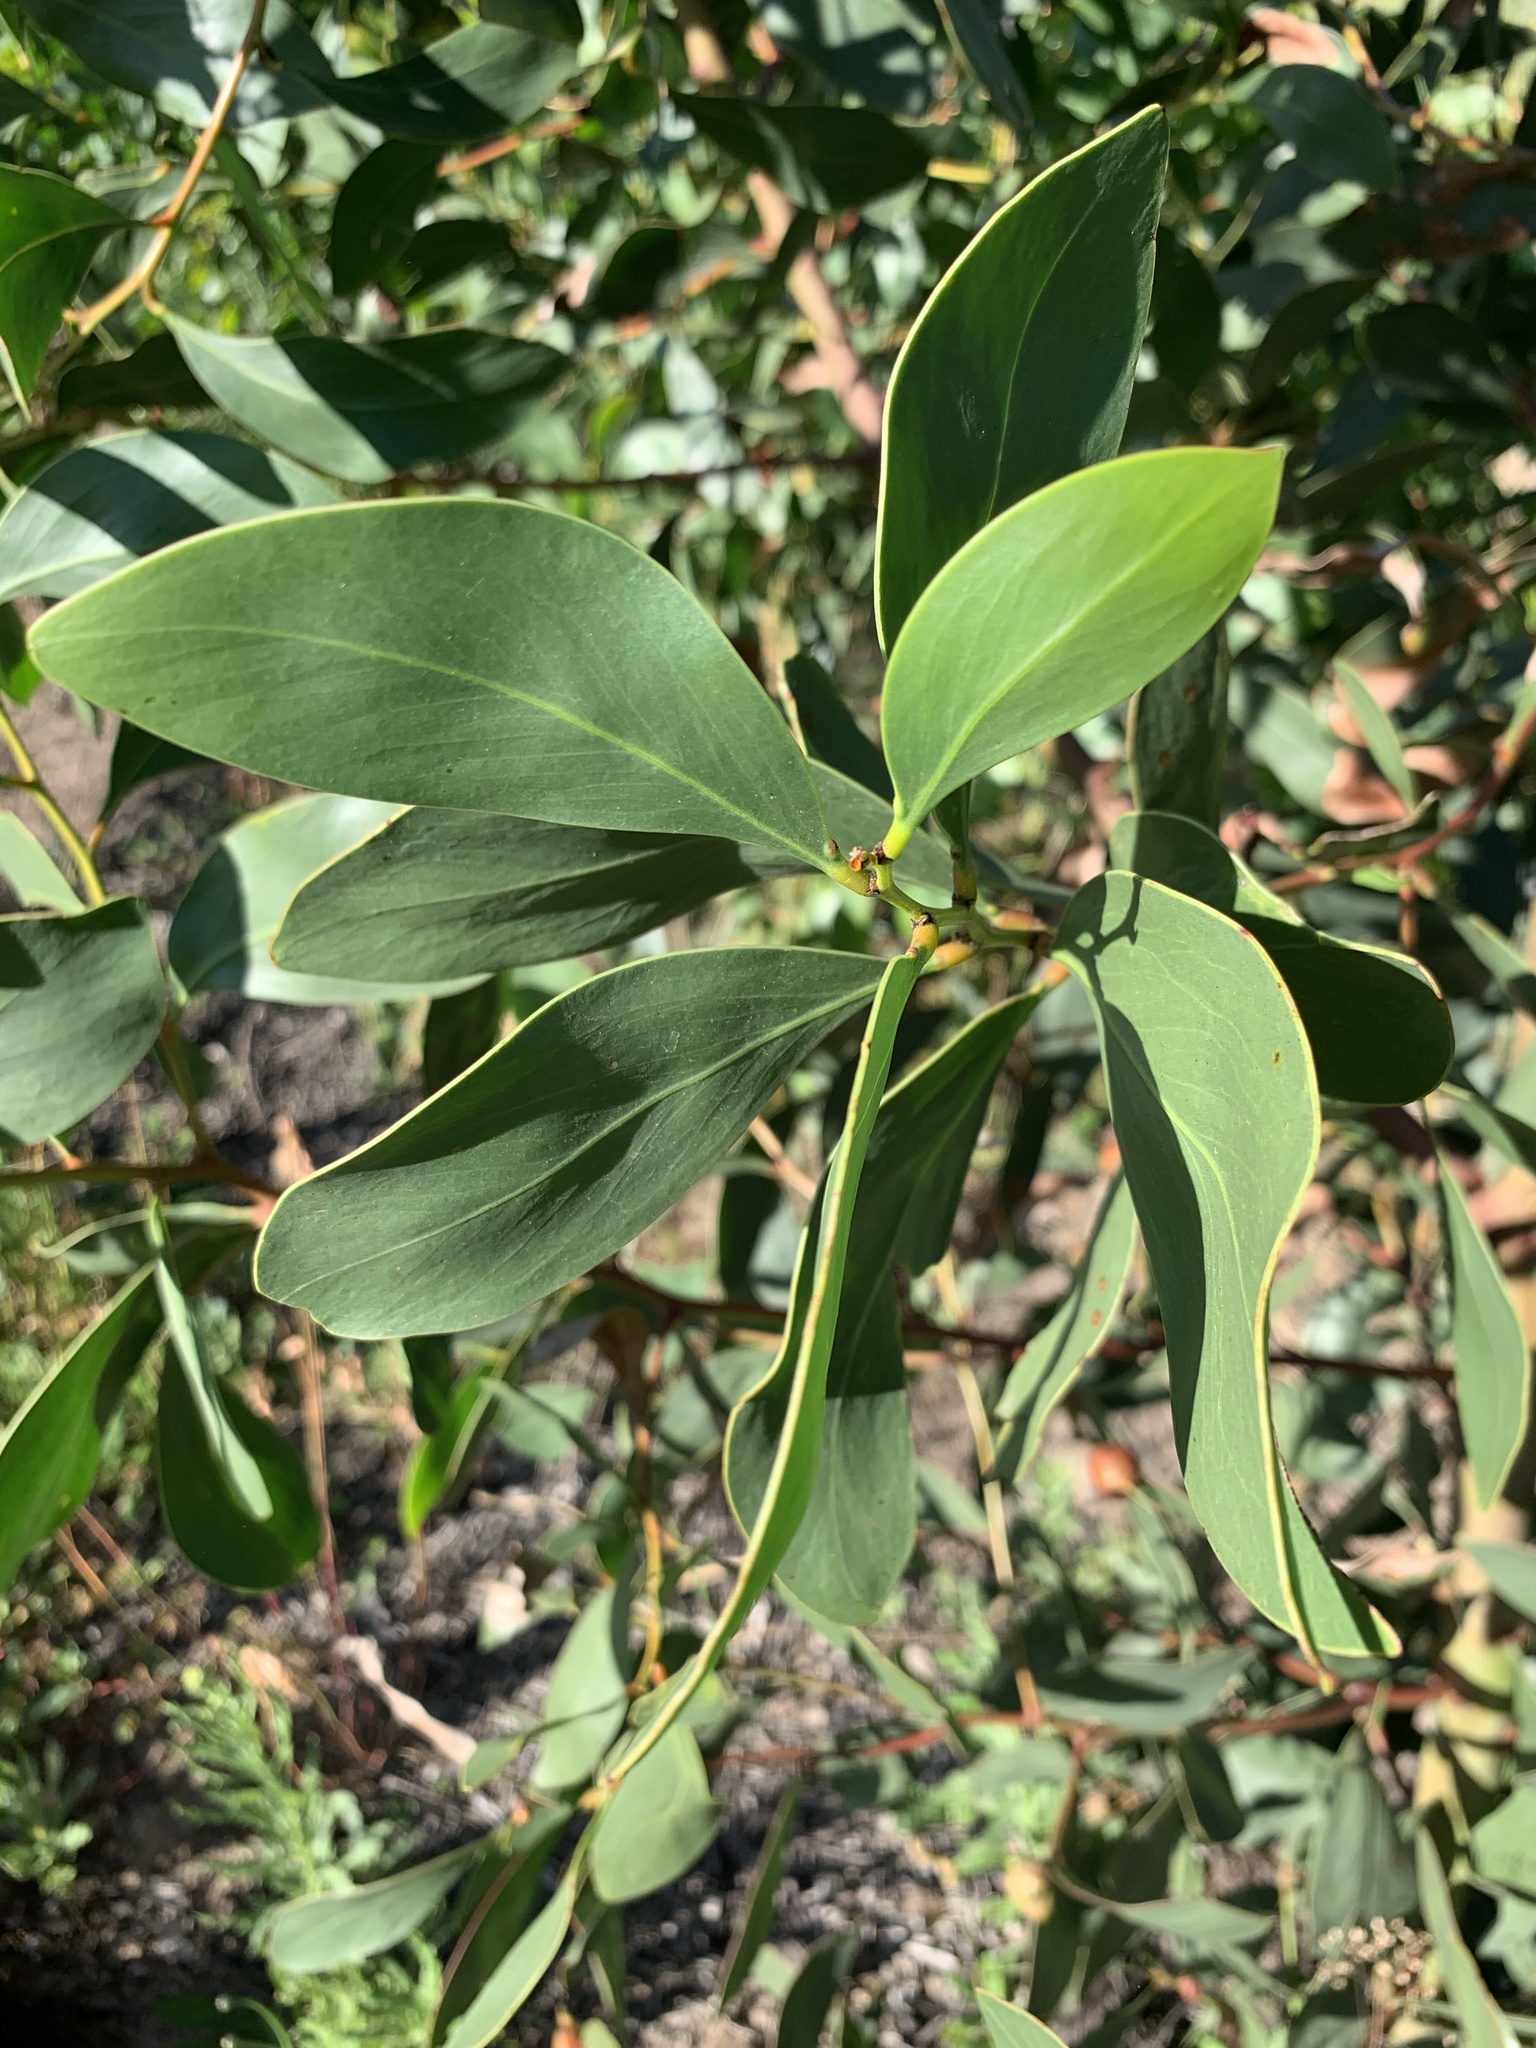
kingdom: Plantae
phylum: Tracheophyta
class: Magnoliopsida
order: Fabales
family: Fabaceae
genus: Acacia
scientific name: Acacia pycnantha
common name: Golden wattle
